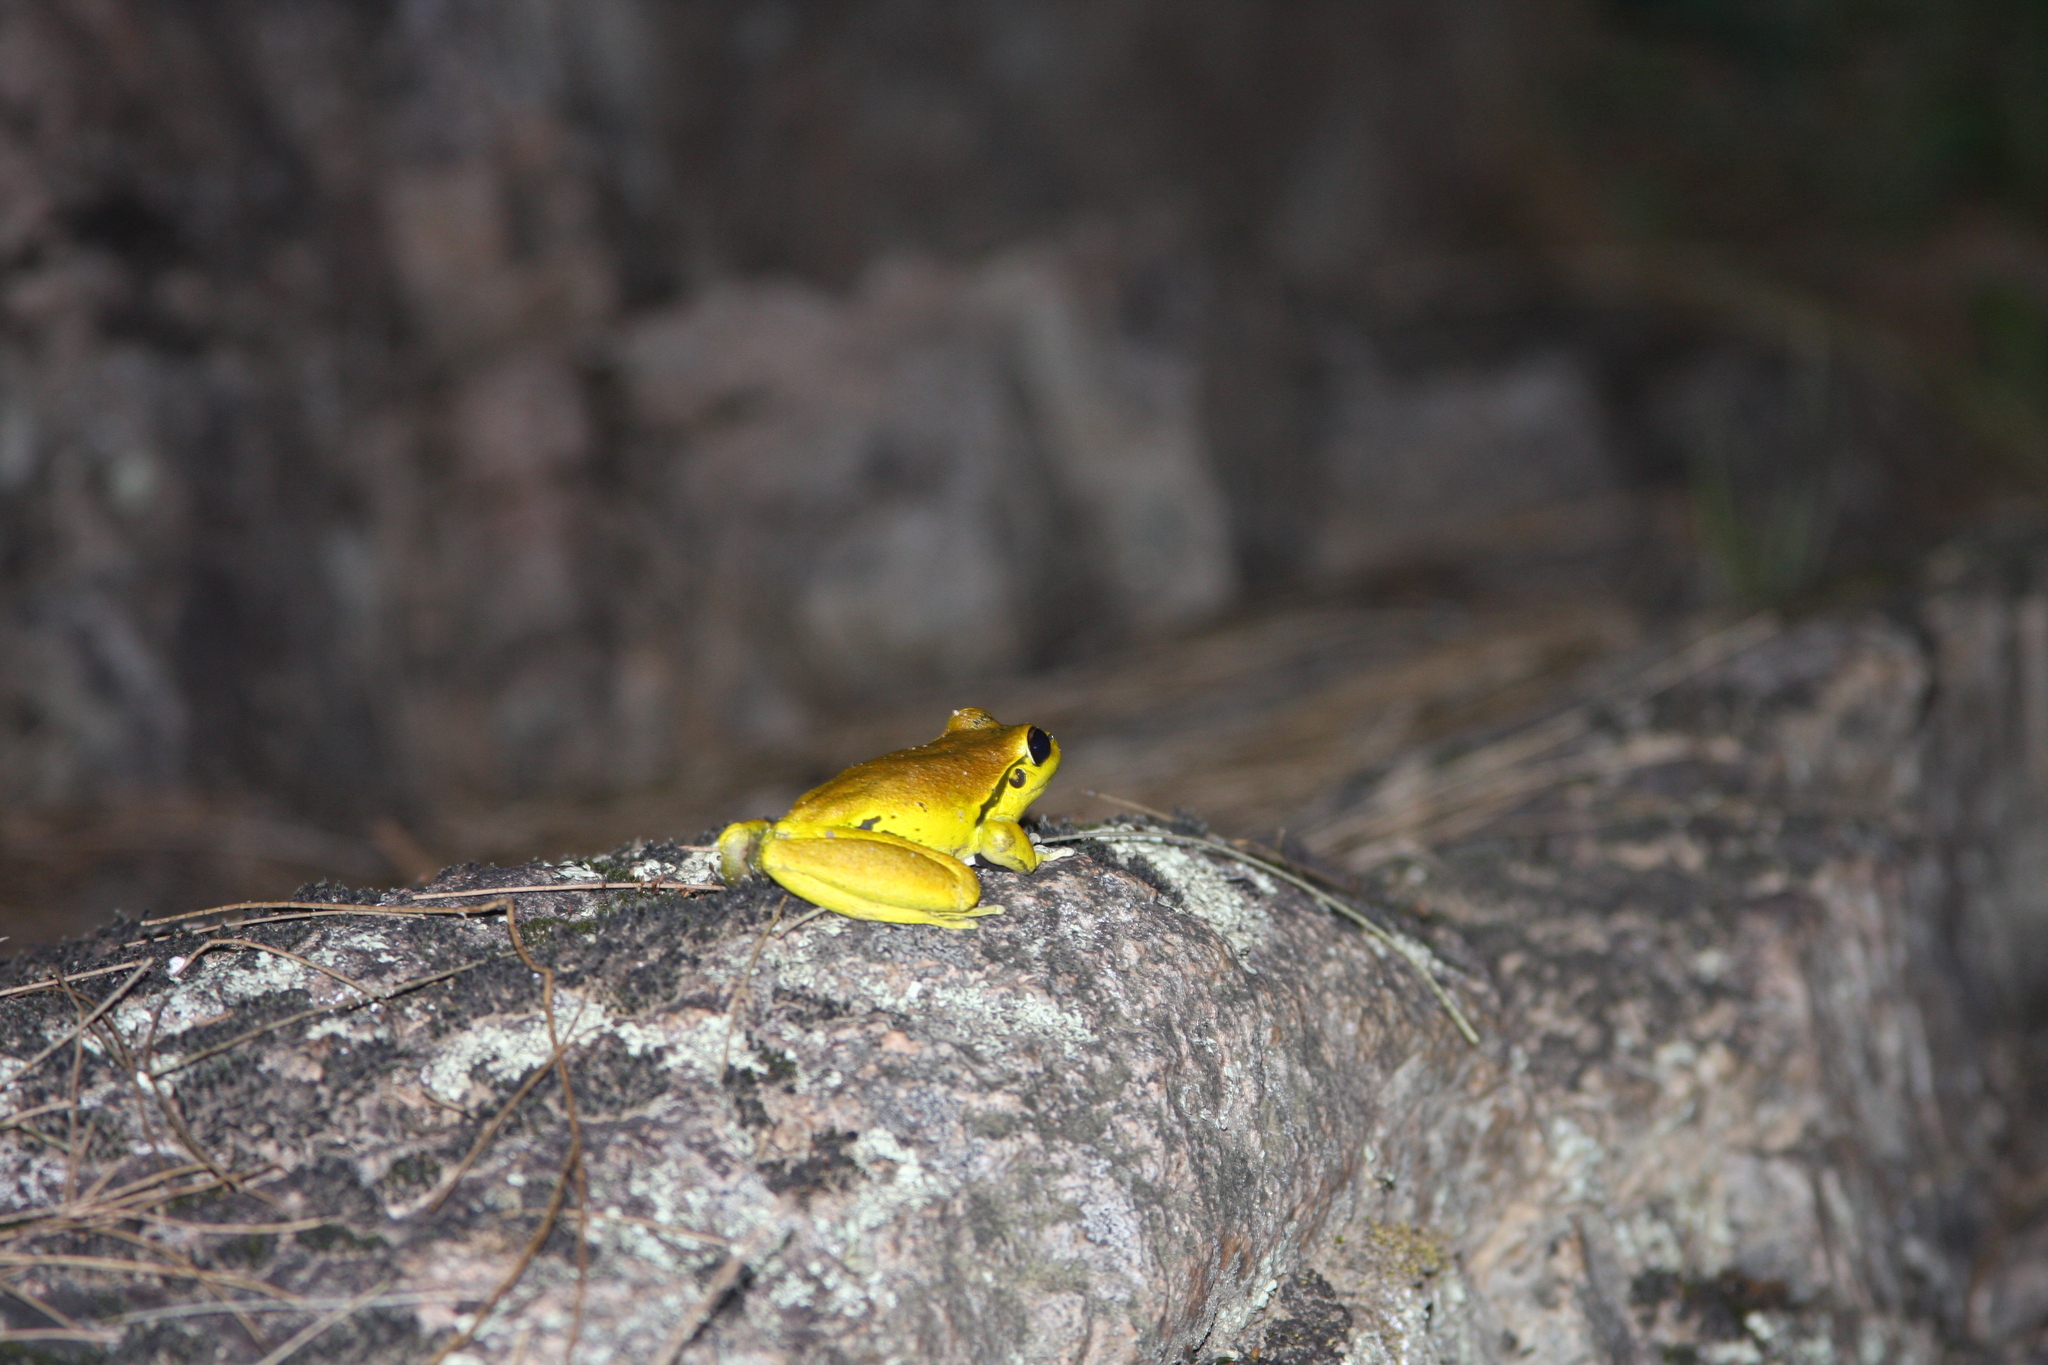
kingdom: Animalia
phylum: Chordata
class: Amphibia
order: Anura
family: Pelodryadidae
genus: Ranoidea
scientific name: Ranoidea lesueurii
